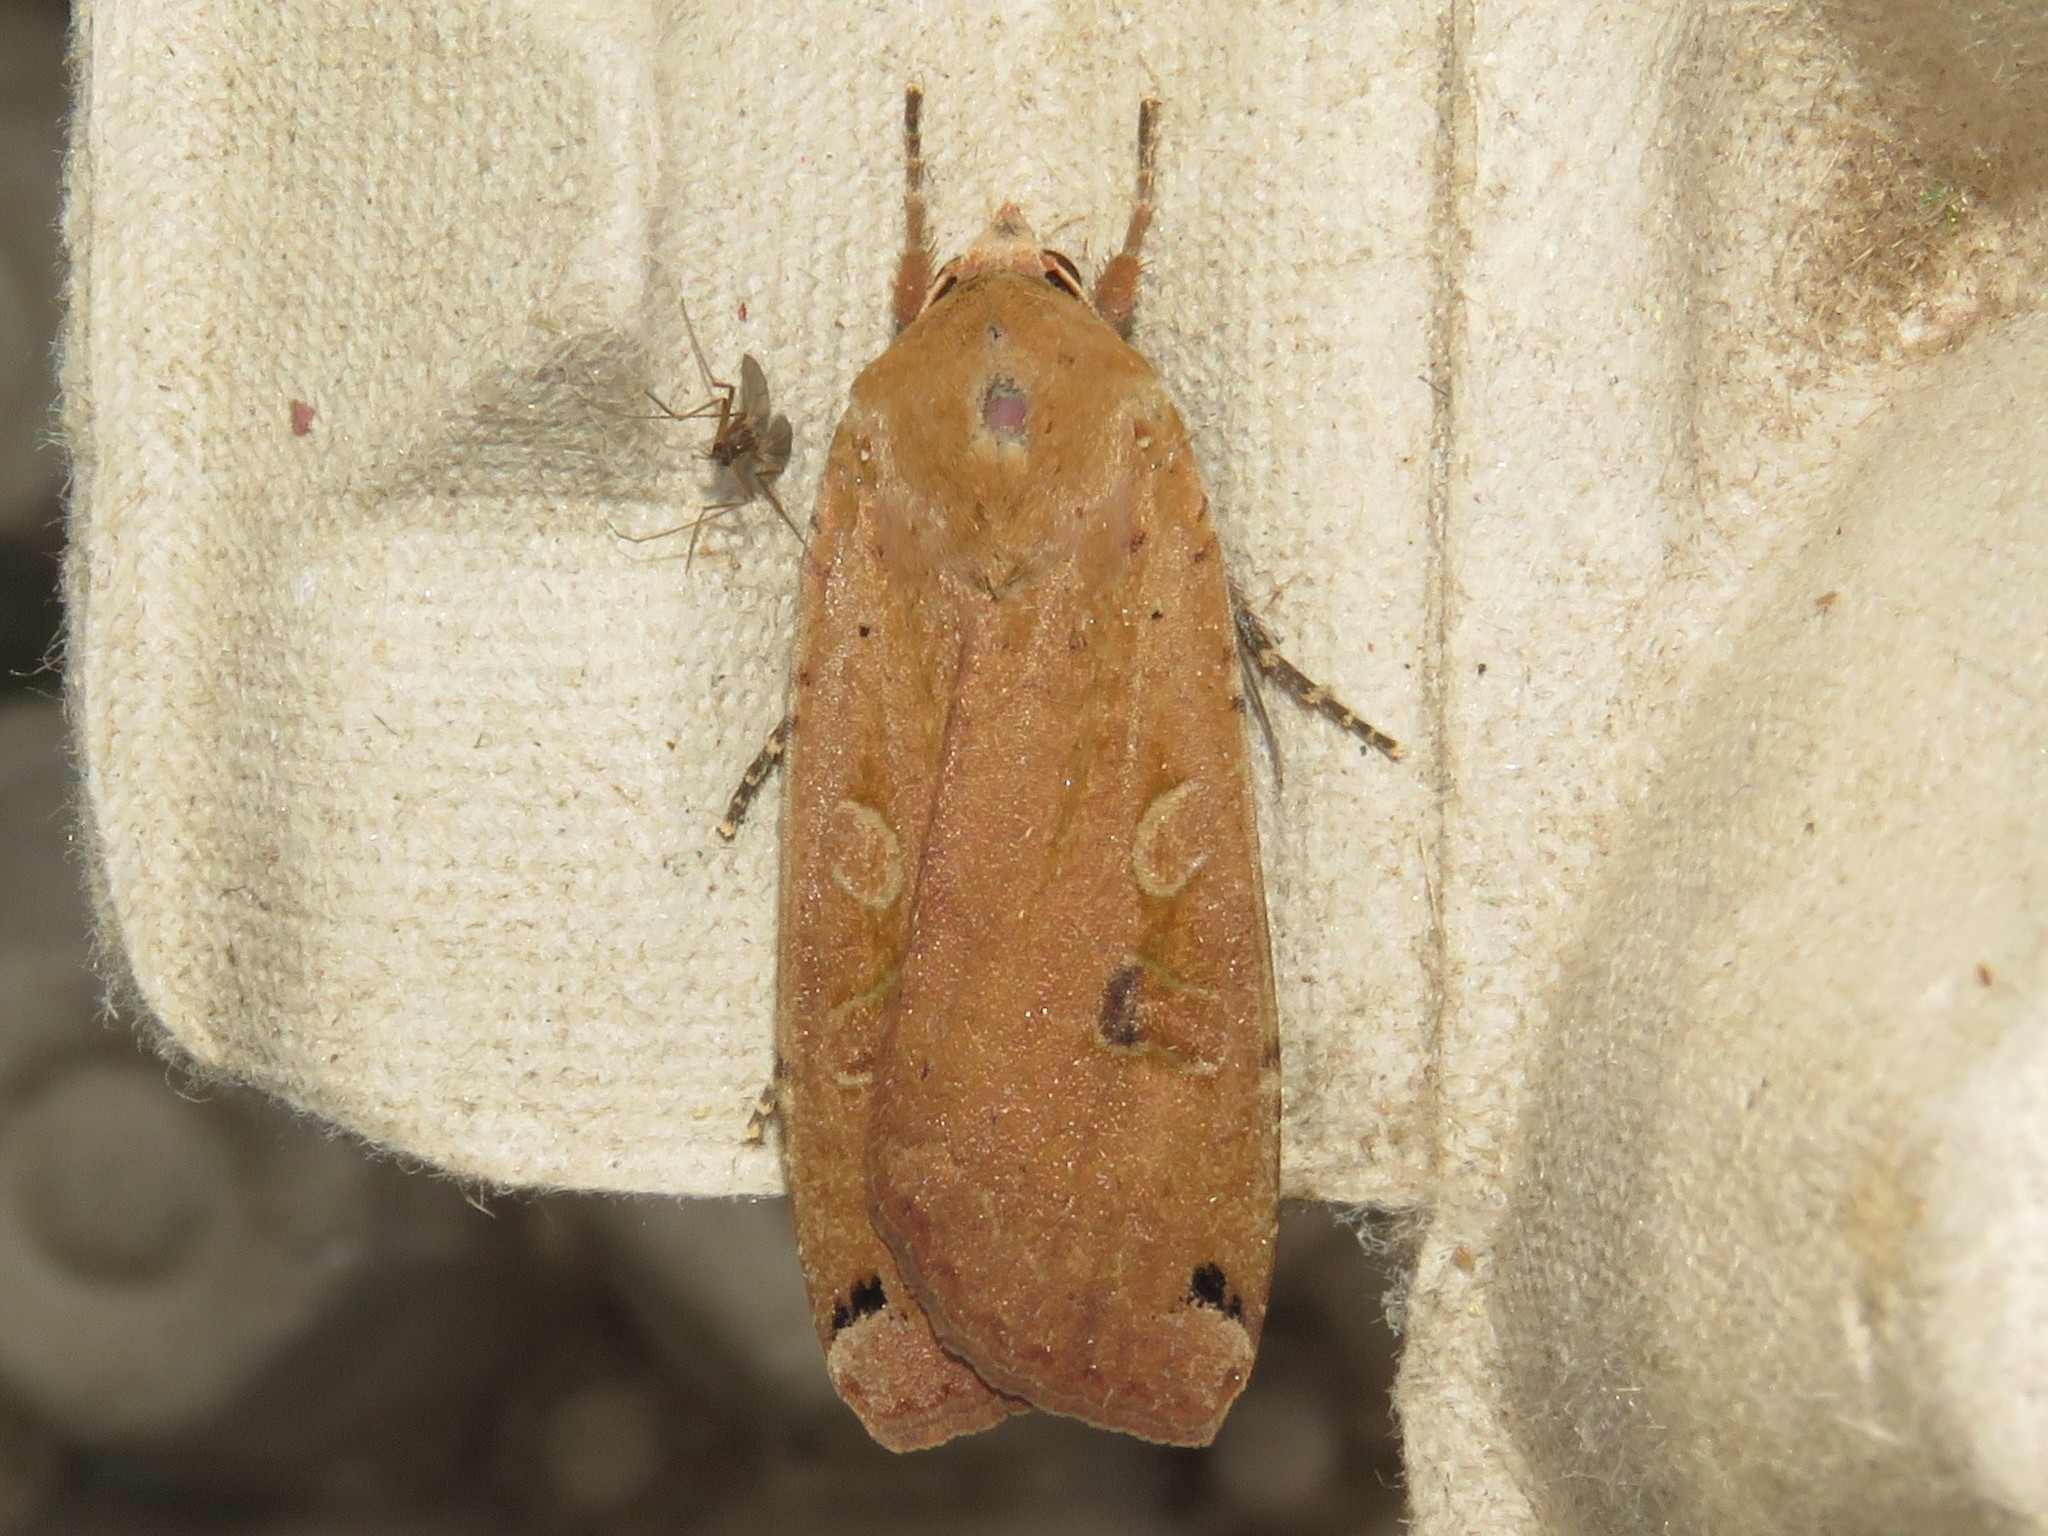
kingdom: Animalia
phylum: Arthropoda
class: Insecta
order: Lepidoptera
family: Noctuidae
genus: Noctua
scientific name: Noctua pronuba
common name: Large yellow underwing
